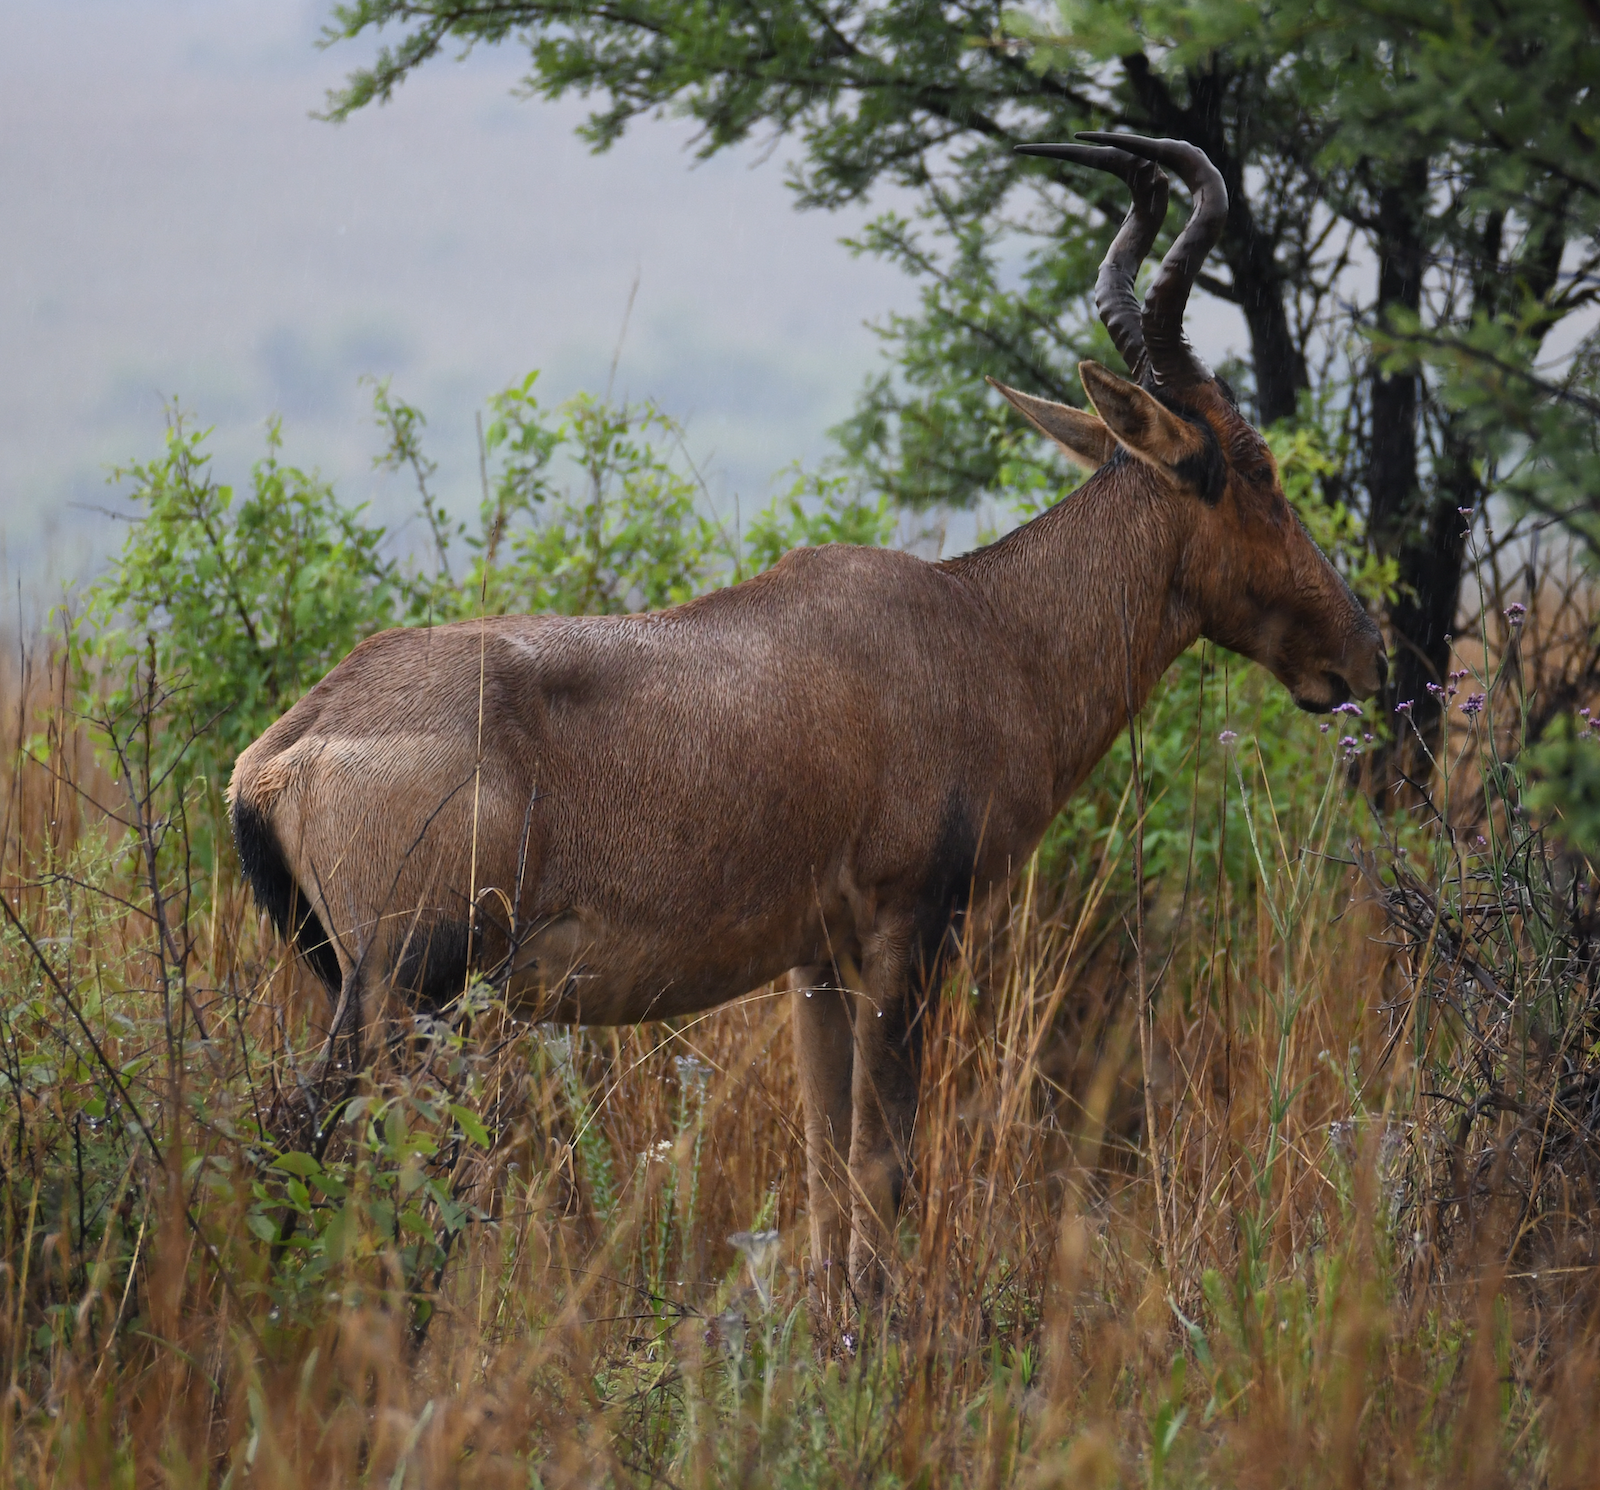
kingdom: Animalia
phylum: Chordata
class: Mammalia
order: Artiodactyla
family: Bovidae
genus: Alcelaphus
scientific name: Alcelaphus caama
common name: Red hartebeest
